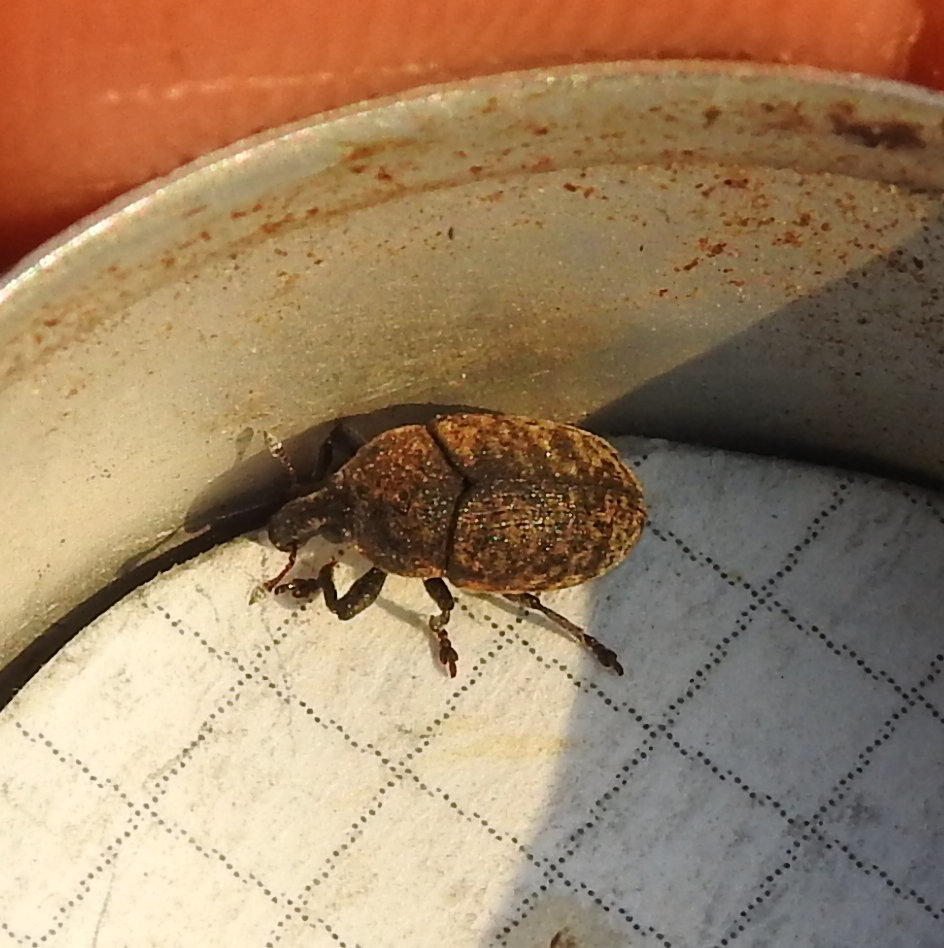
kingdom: Animalia
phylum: Arthropoda
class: Insecta
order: Coleoptera
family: Curculionidae
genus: Larinus
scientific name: Larinus obtusus
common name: Weevil
